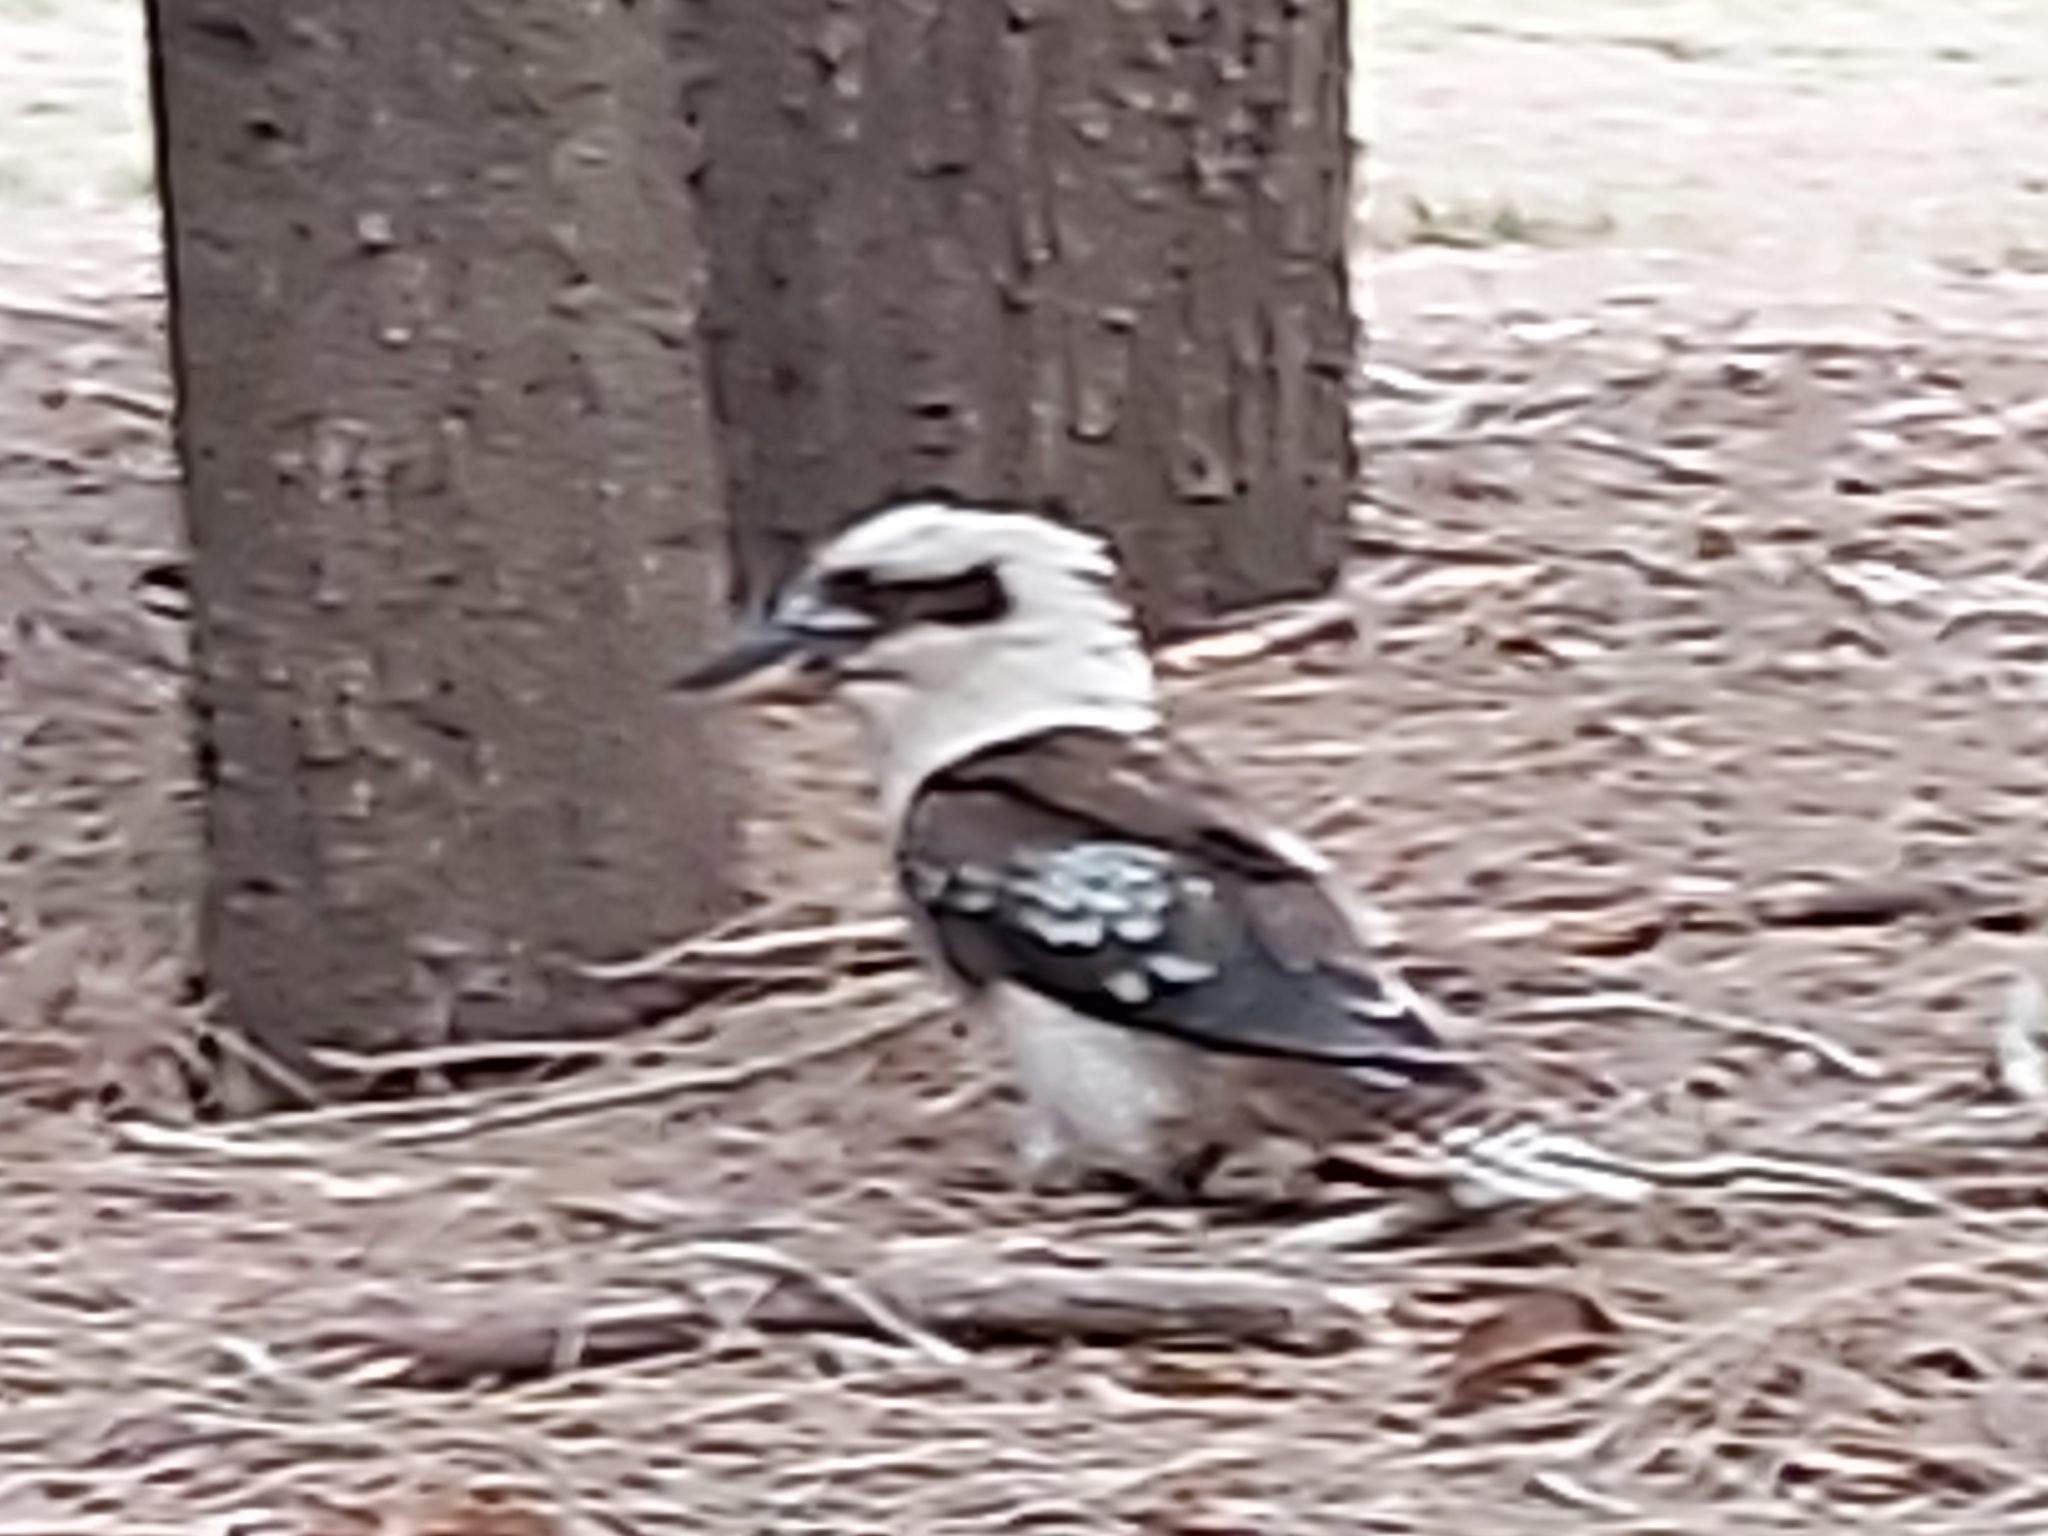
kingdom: Animalia
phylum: Chordata
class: Aves
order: Coraciiformes
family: Alcedinidae
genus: Dacelo
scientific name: Dacelo novaeguineae
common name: Laughing kookaburra
